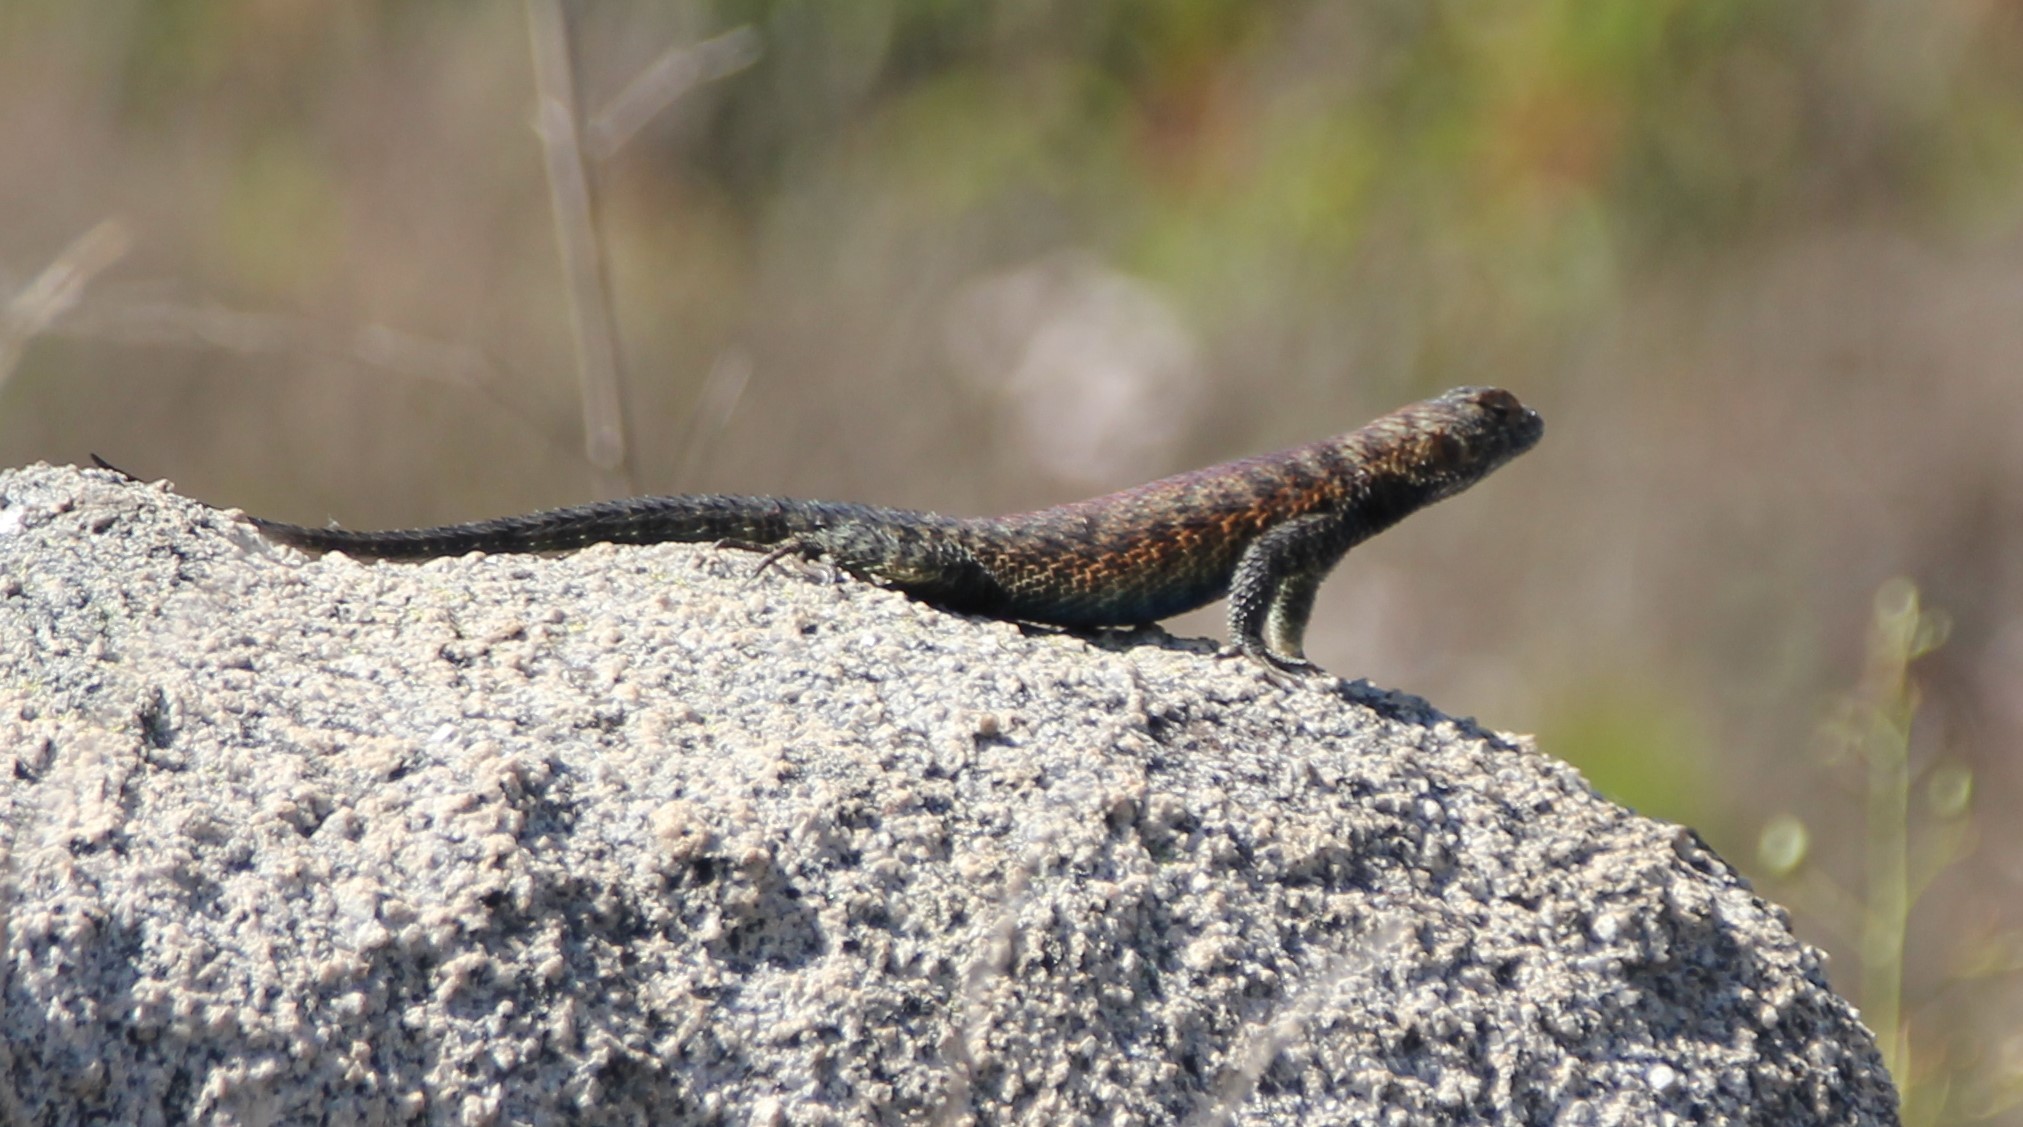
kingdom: Animalia
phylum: Chordata
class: Squamata
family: Phrynosomatidae
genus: Sceloporus
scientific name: Sceloporus orcutti
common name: Granite spiny lizard
